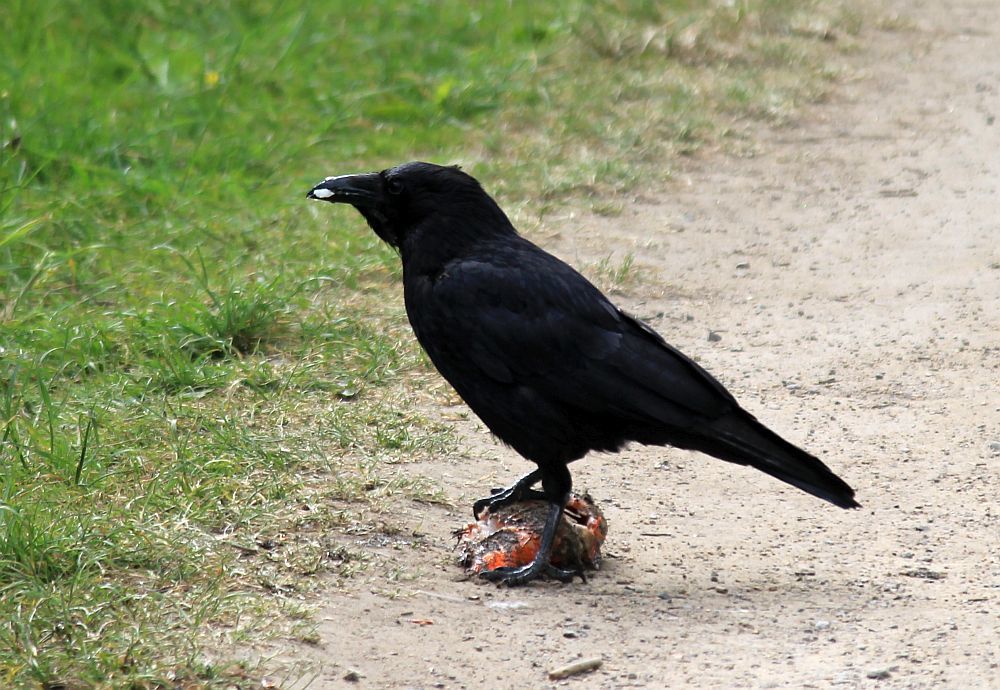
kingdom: Animalia
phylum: Chordata
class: Aves
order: Passeriformes
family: Corvidae
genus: Corvus
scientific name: Corvus corone
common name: Carrion crow
